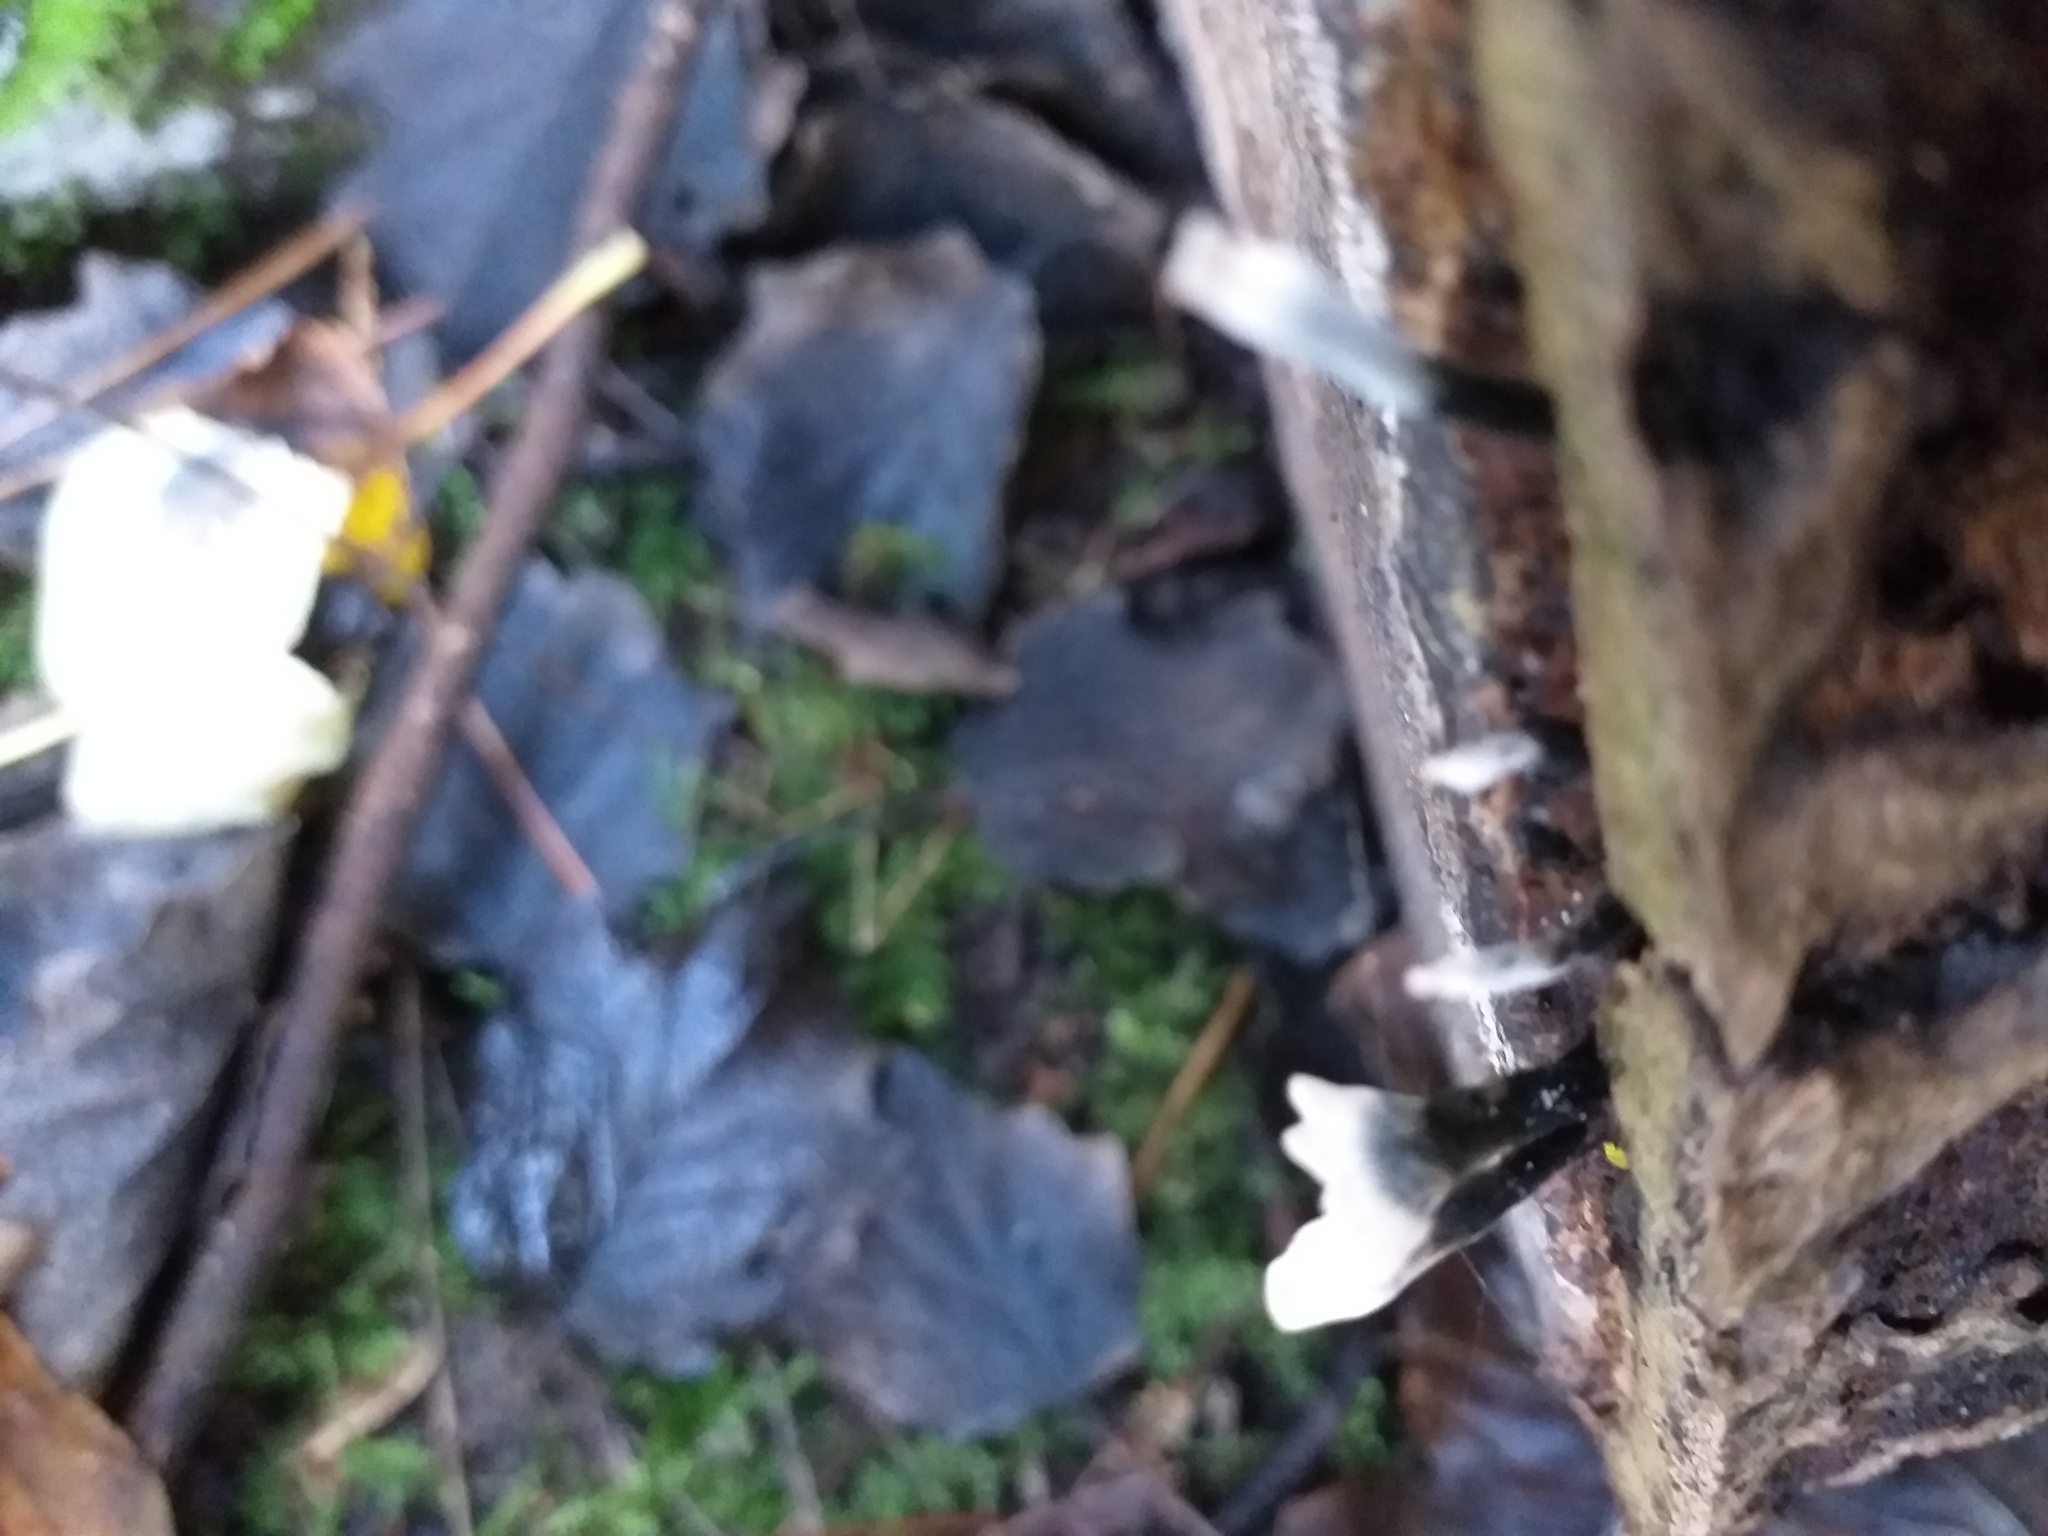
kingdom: Fungi
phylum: Ascomycota
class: Sordariomycetes
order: Xylariales
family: Xylariaceae
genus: Xylaria
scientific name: Xylaria hypoxylon
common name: Candle-snuff fungus
